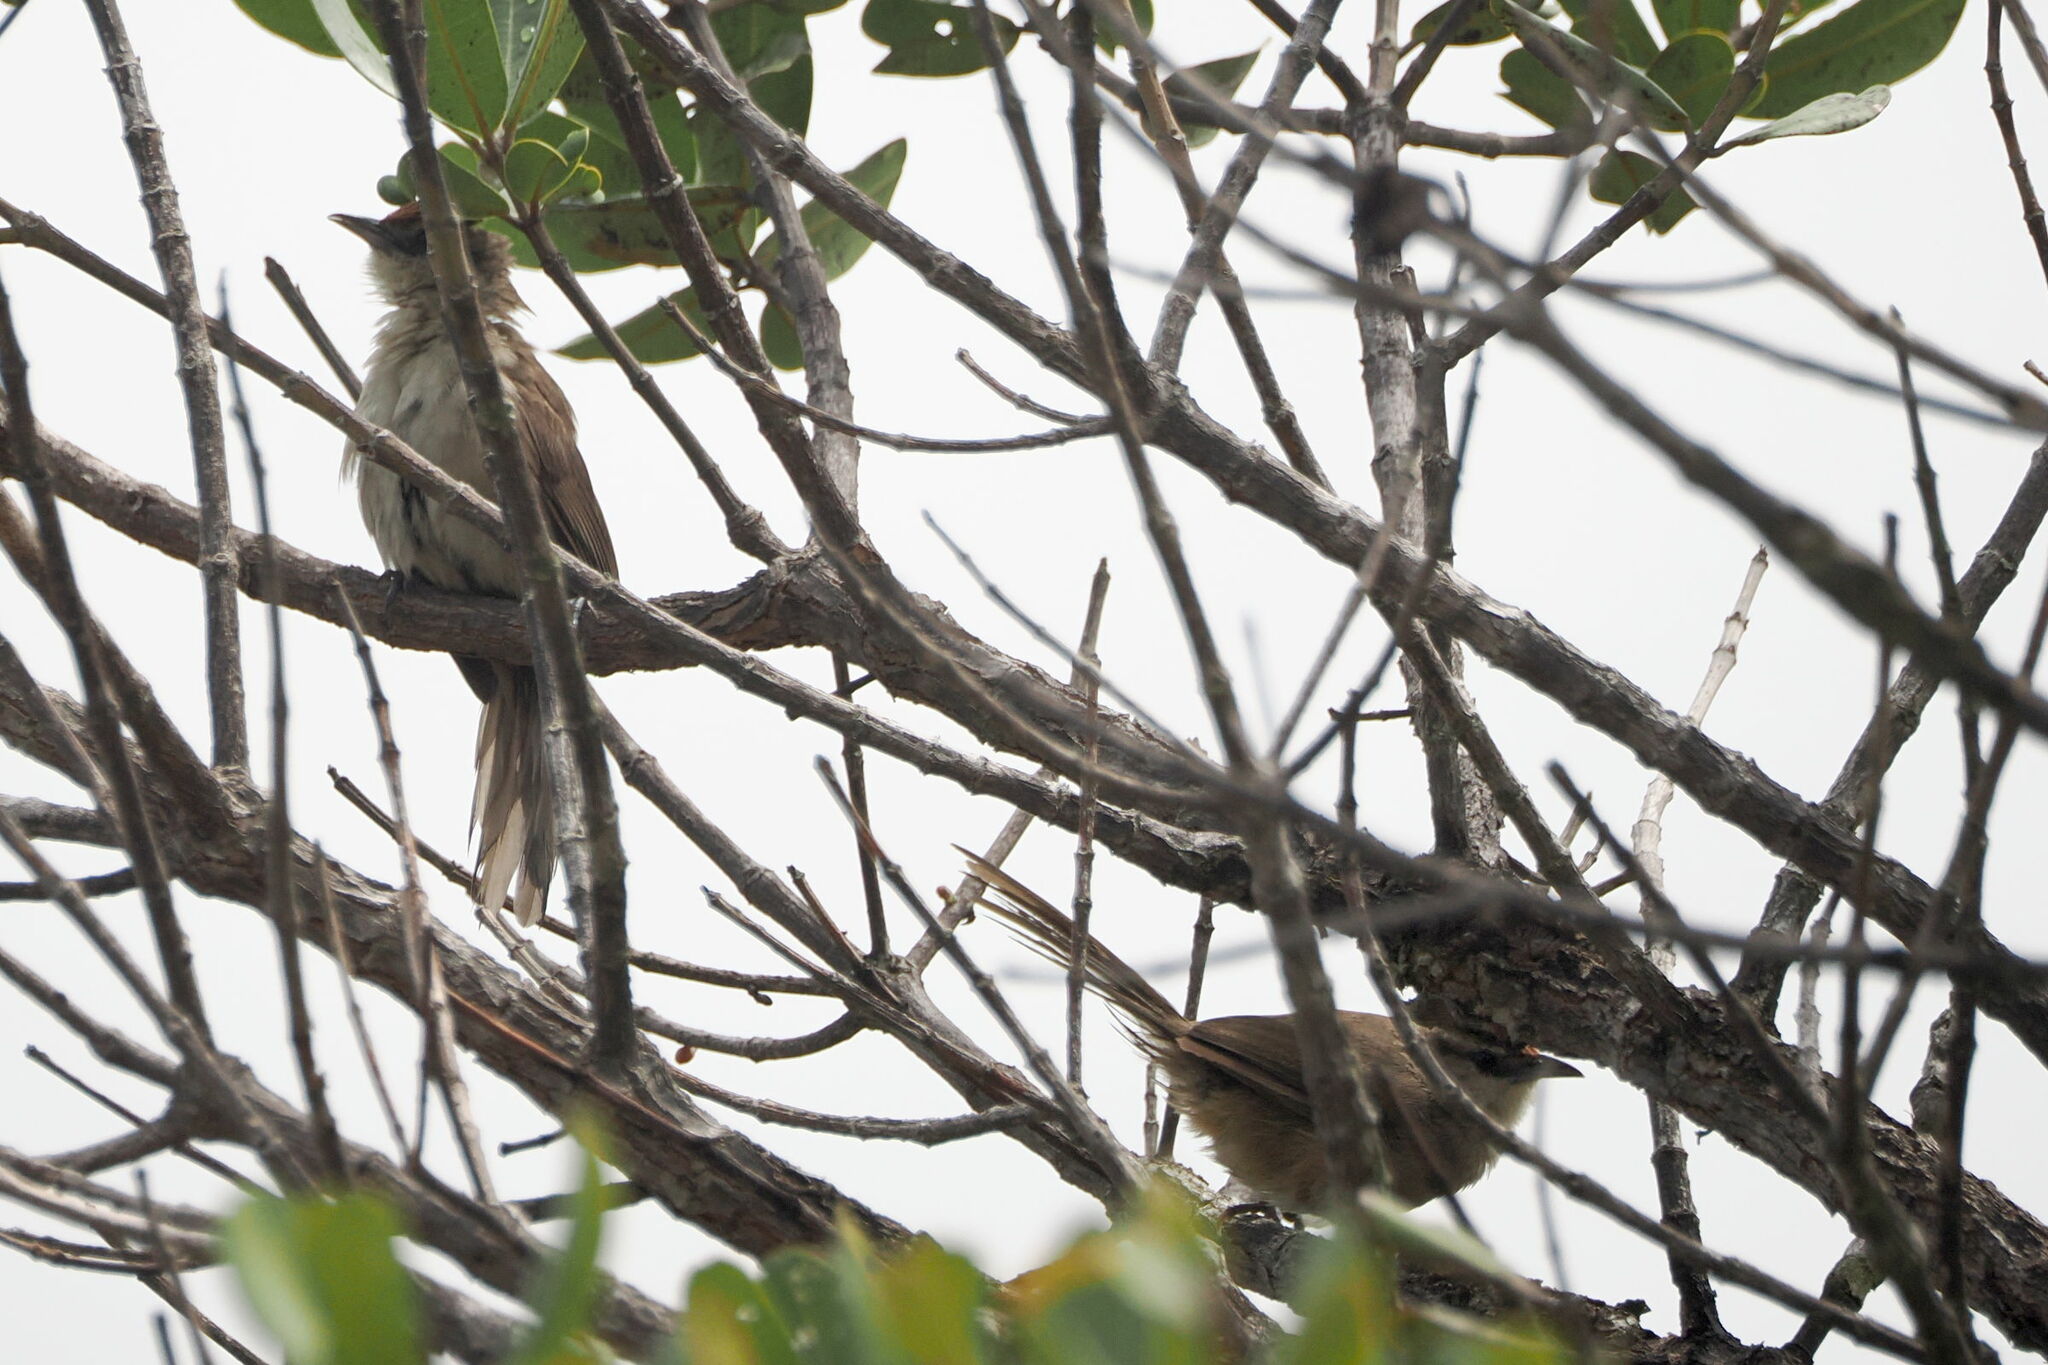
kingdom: Animalia
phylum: Chordata
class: Aves
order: Passeriformes
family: Furnariidae
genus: Phacellodomus
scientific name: Phacellodomus rufifrons
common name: Rufous-fronted thornbird
